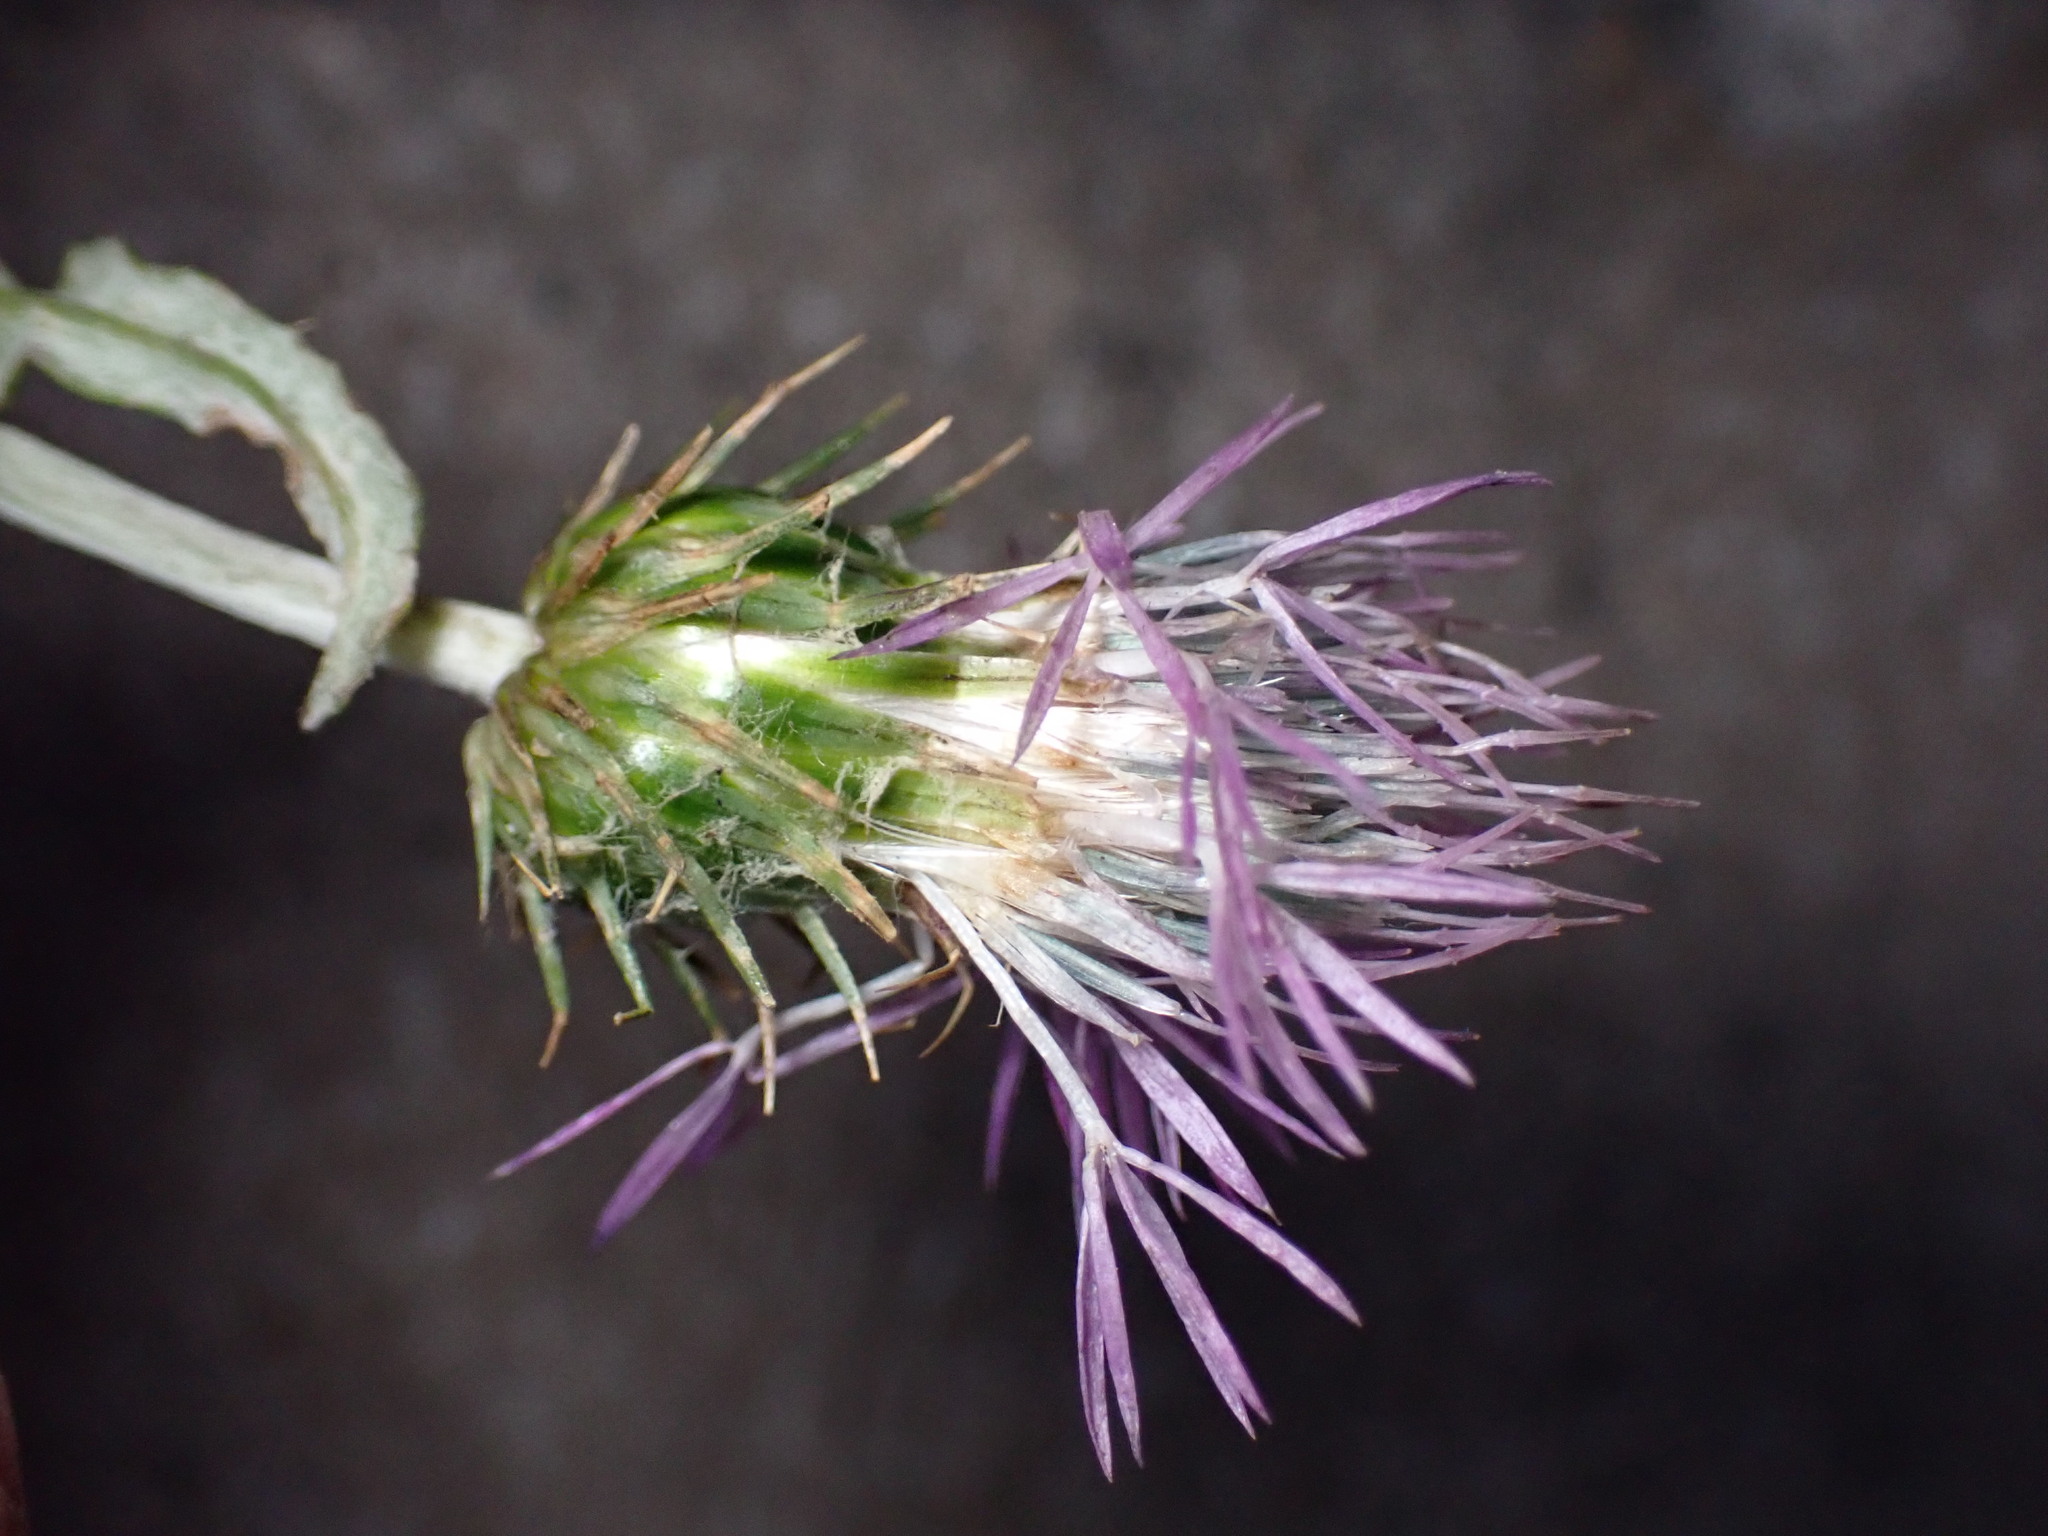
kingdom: Plantae
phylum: Tracheophyta
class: Magnoliopsida
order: Asterales
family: Asteraceae
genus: Galactites
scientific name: Galactites tomentosa
